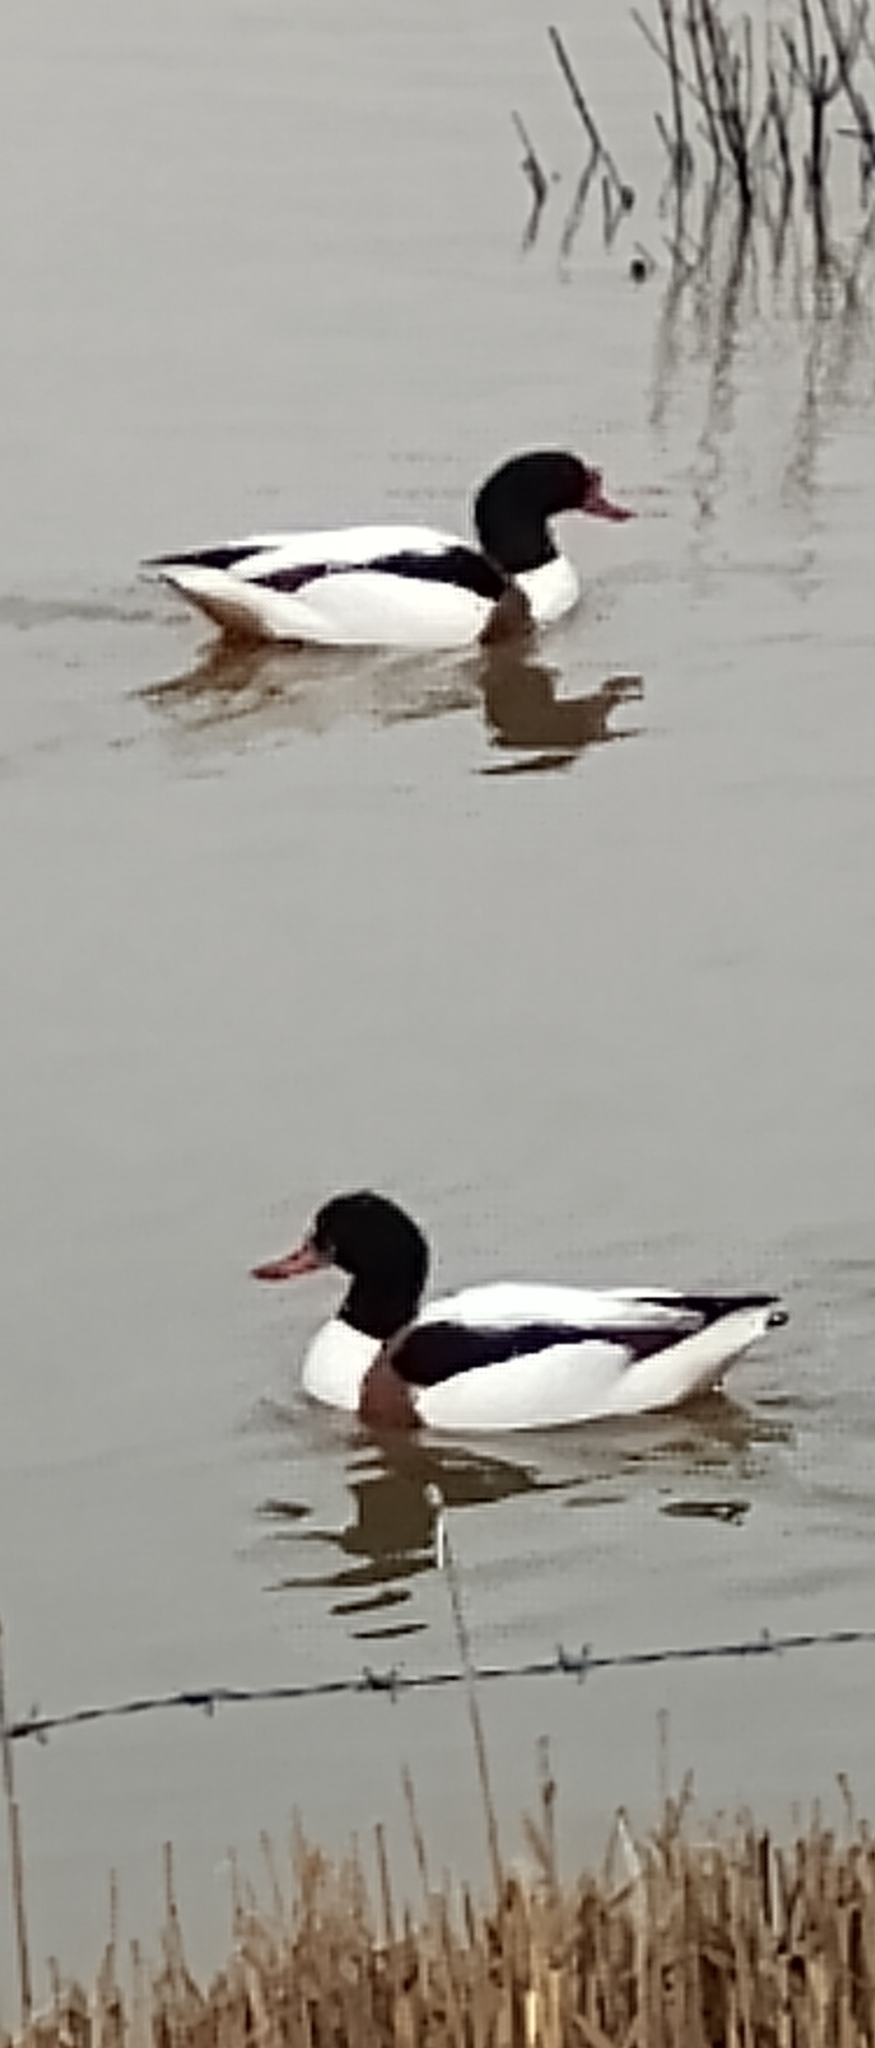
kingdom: Animalia
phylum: Chordata
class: Aves
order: Anseriformes
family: Anatidae
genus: Tadorna
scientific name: Tadorna tadorna
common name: Common shelduck
